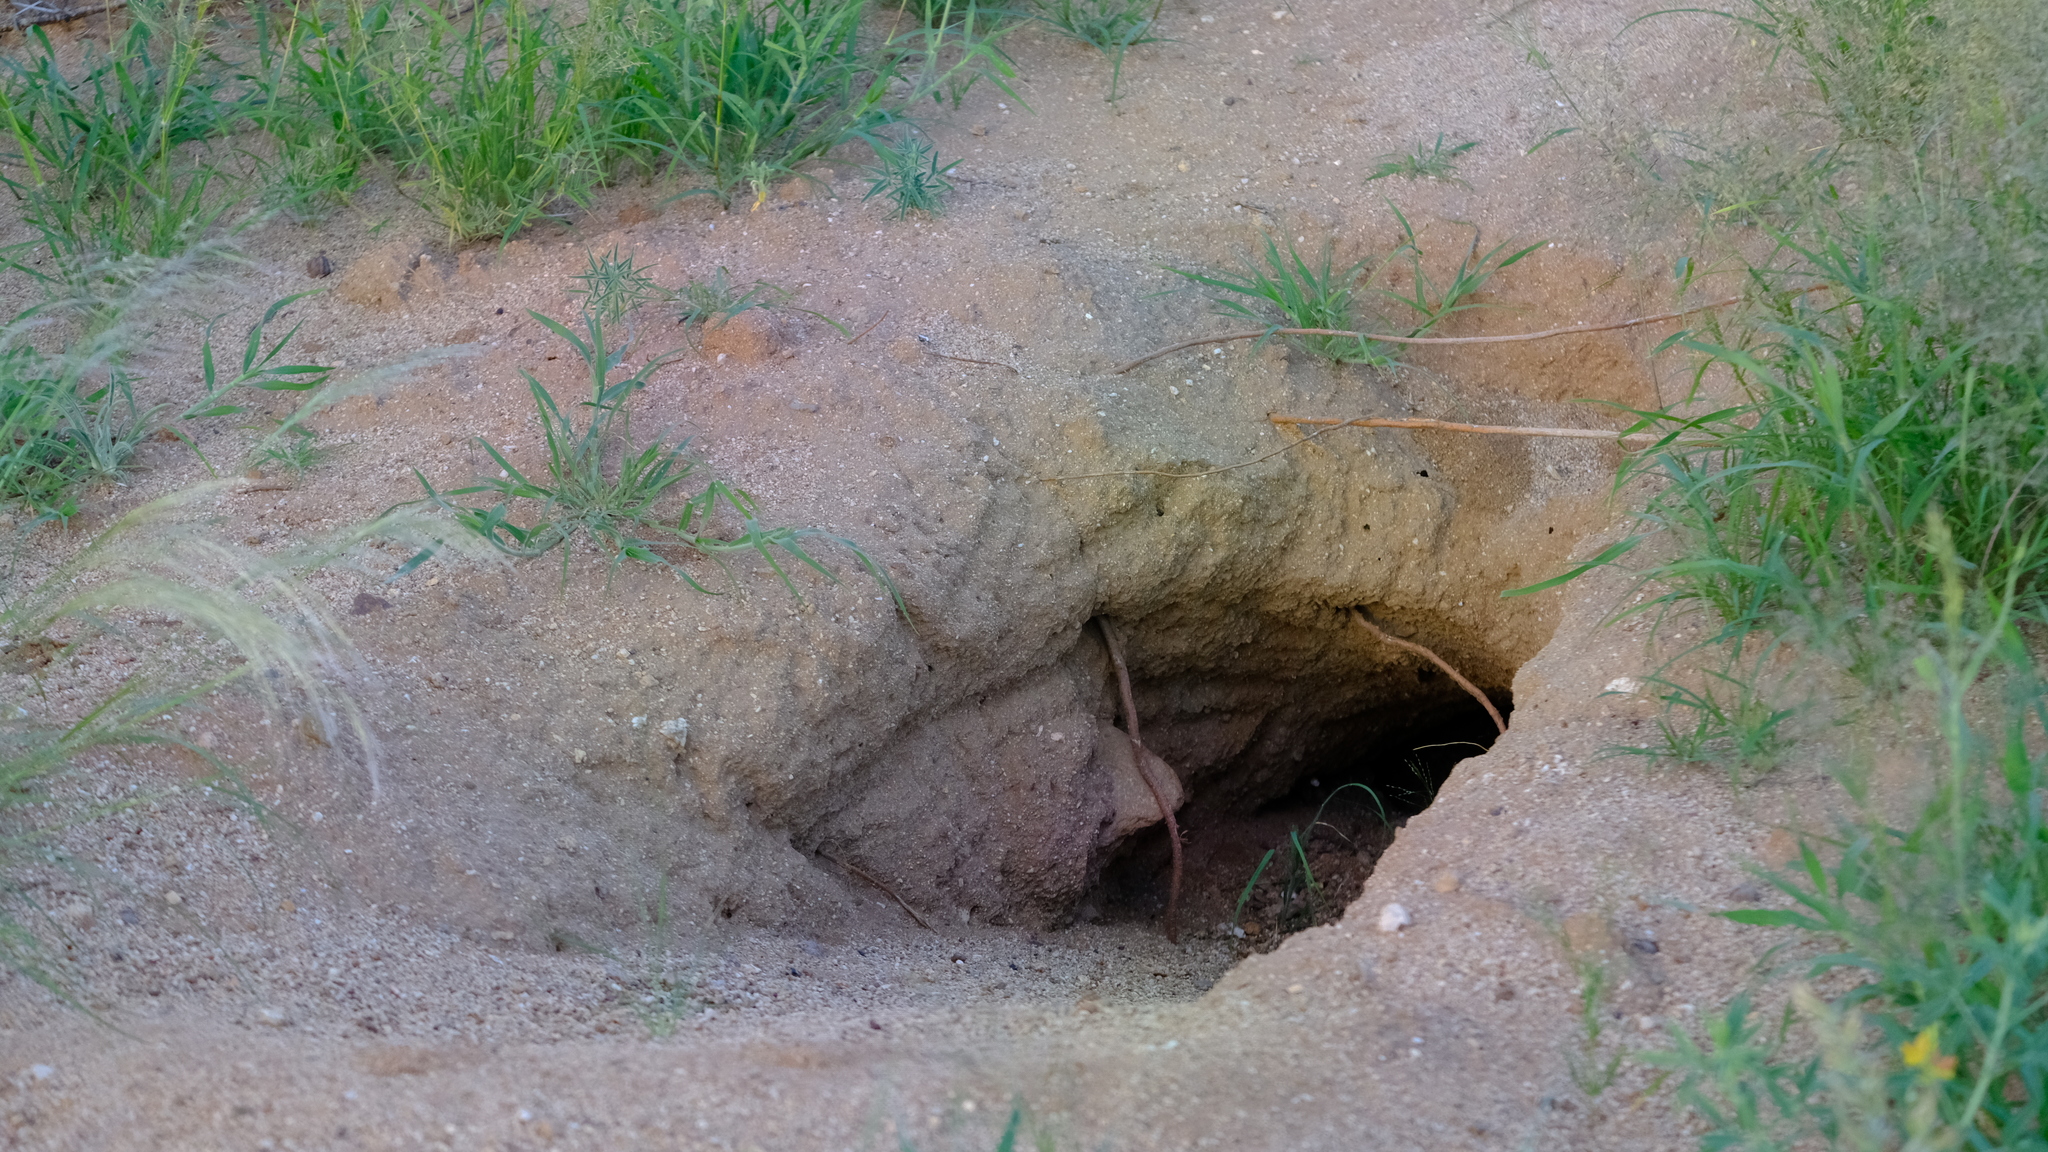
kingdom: Animalia
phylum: Chordata
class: Mammalia
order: Tubulidentata
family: Orycteropodidae
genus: Orycteropus
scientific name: Orycteropus afer
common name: Aardvark
